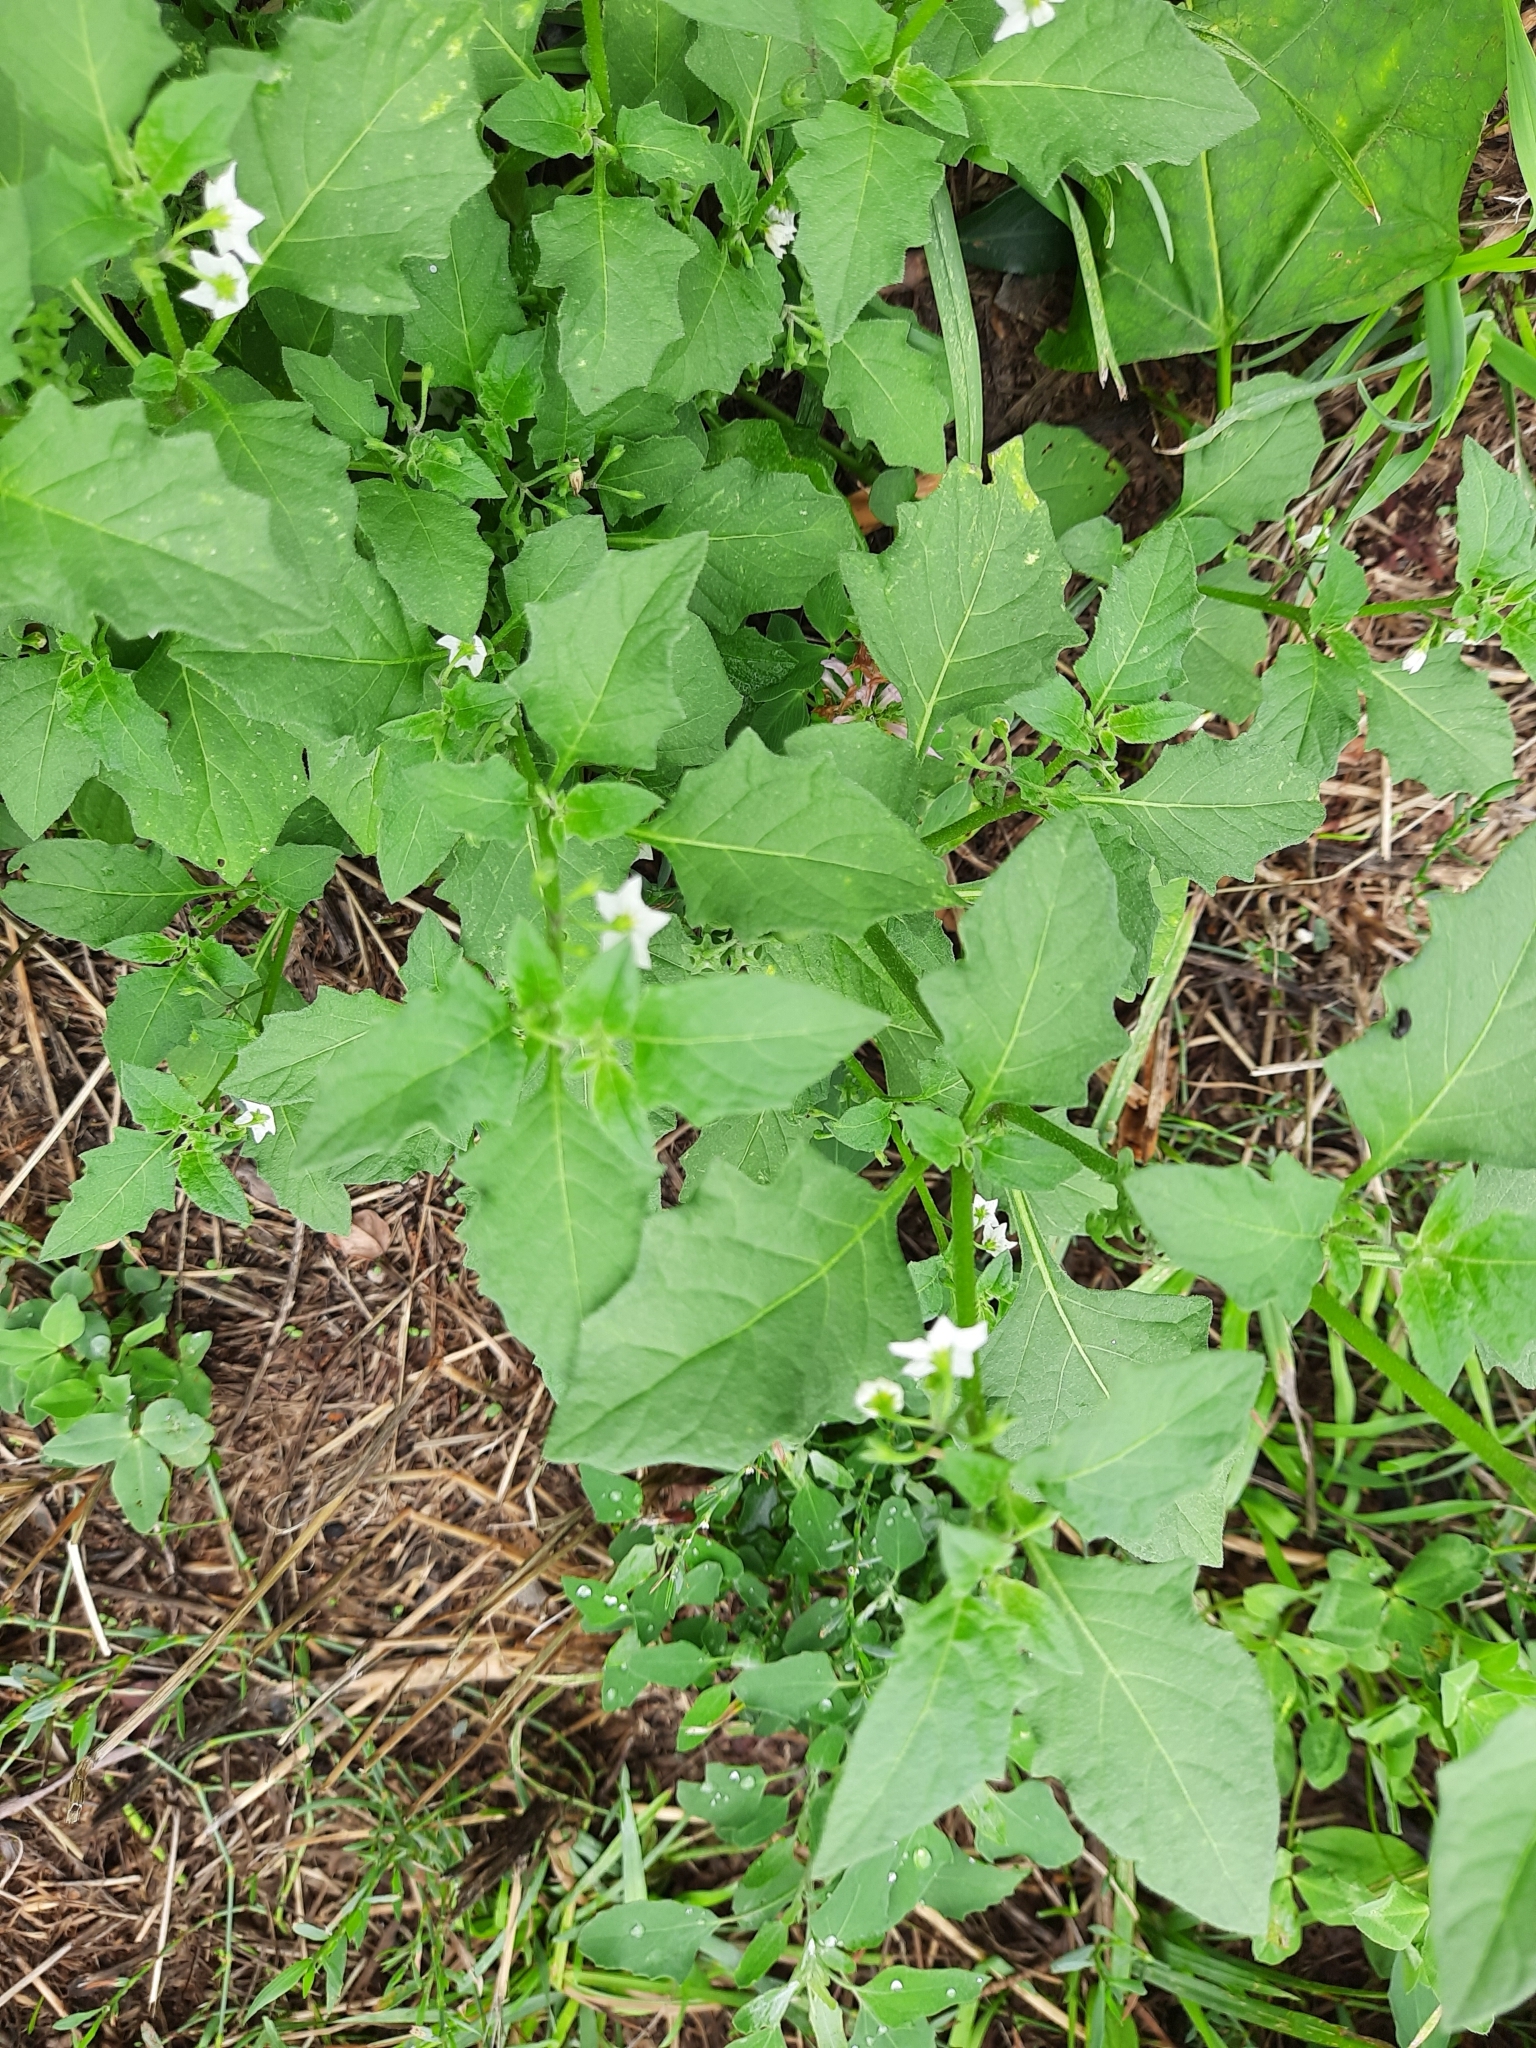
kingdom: Plantae
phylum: Tracheophyta
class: Magnoliopsida
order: Solanales
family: Solanaceae
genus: Solanum
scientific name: Solanum nigrum
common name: Black nightshade
